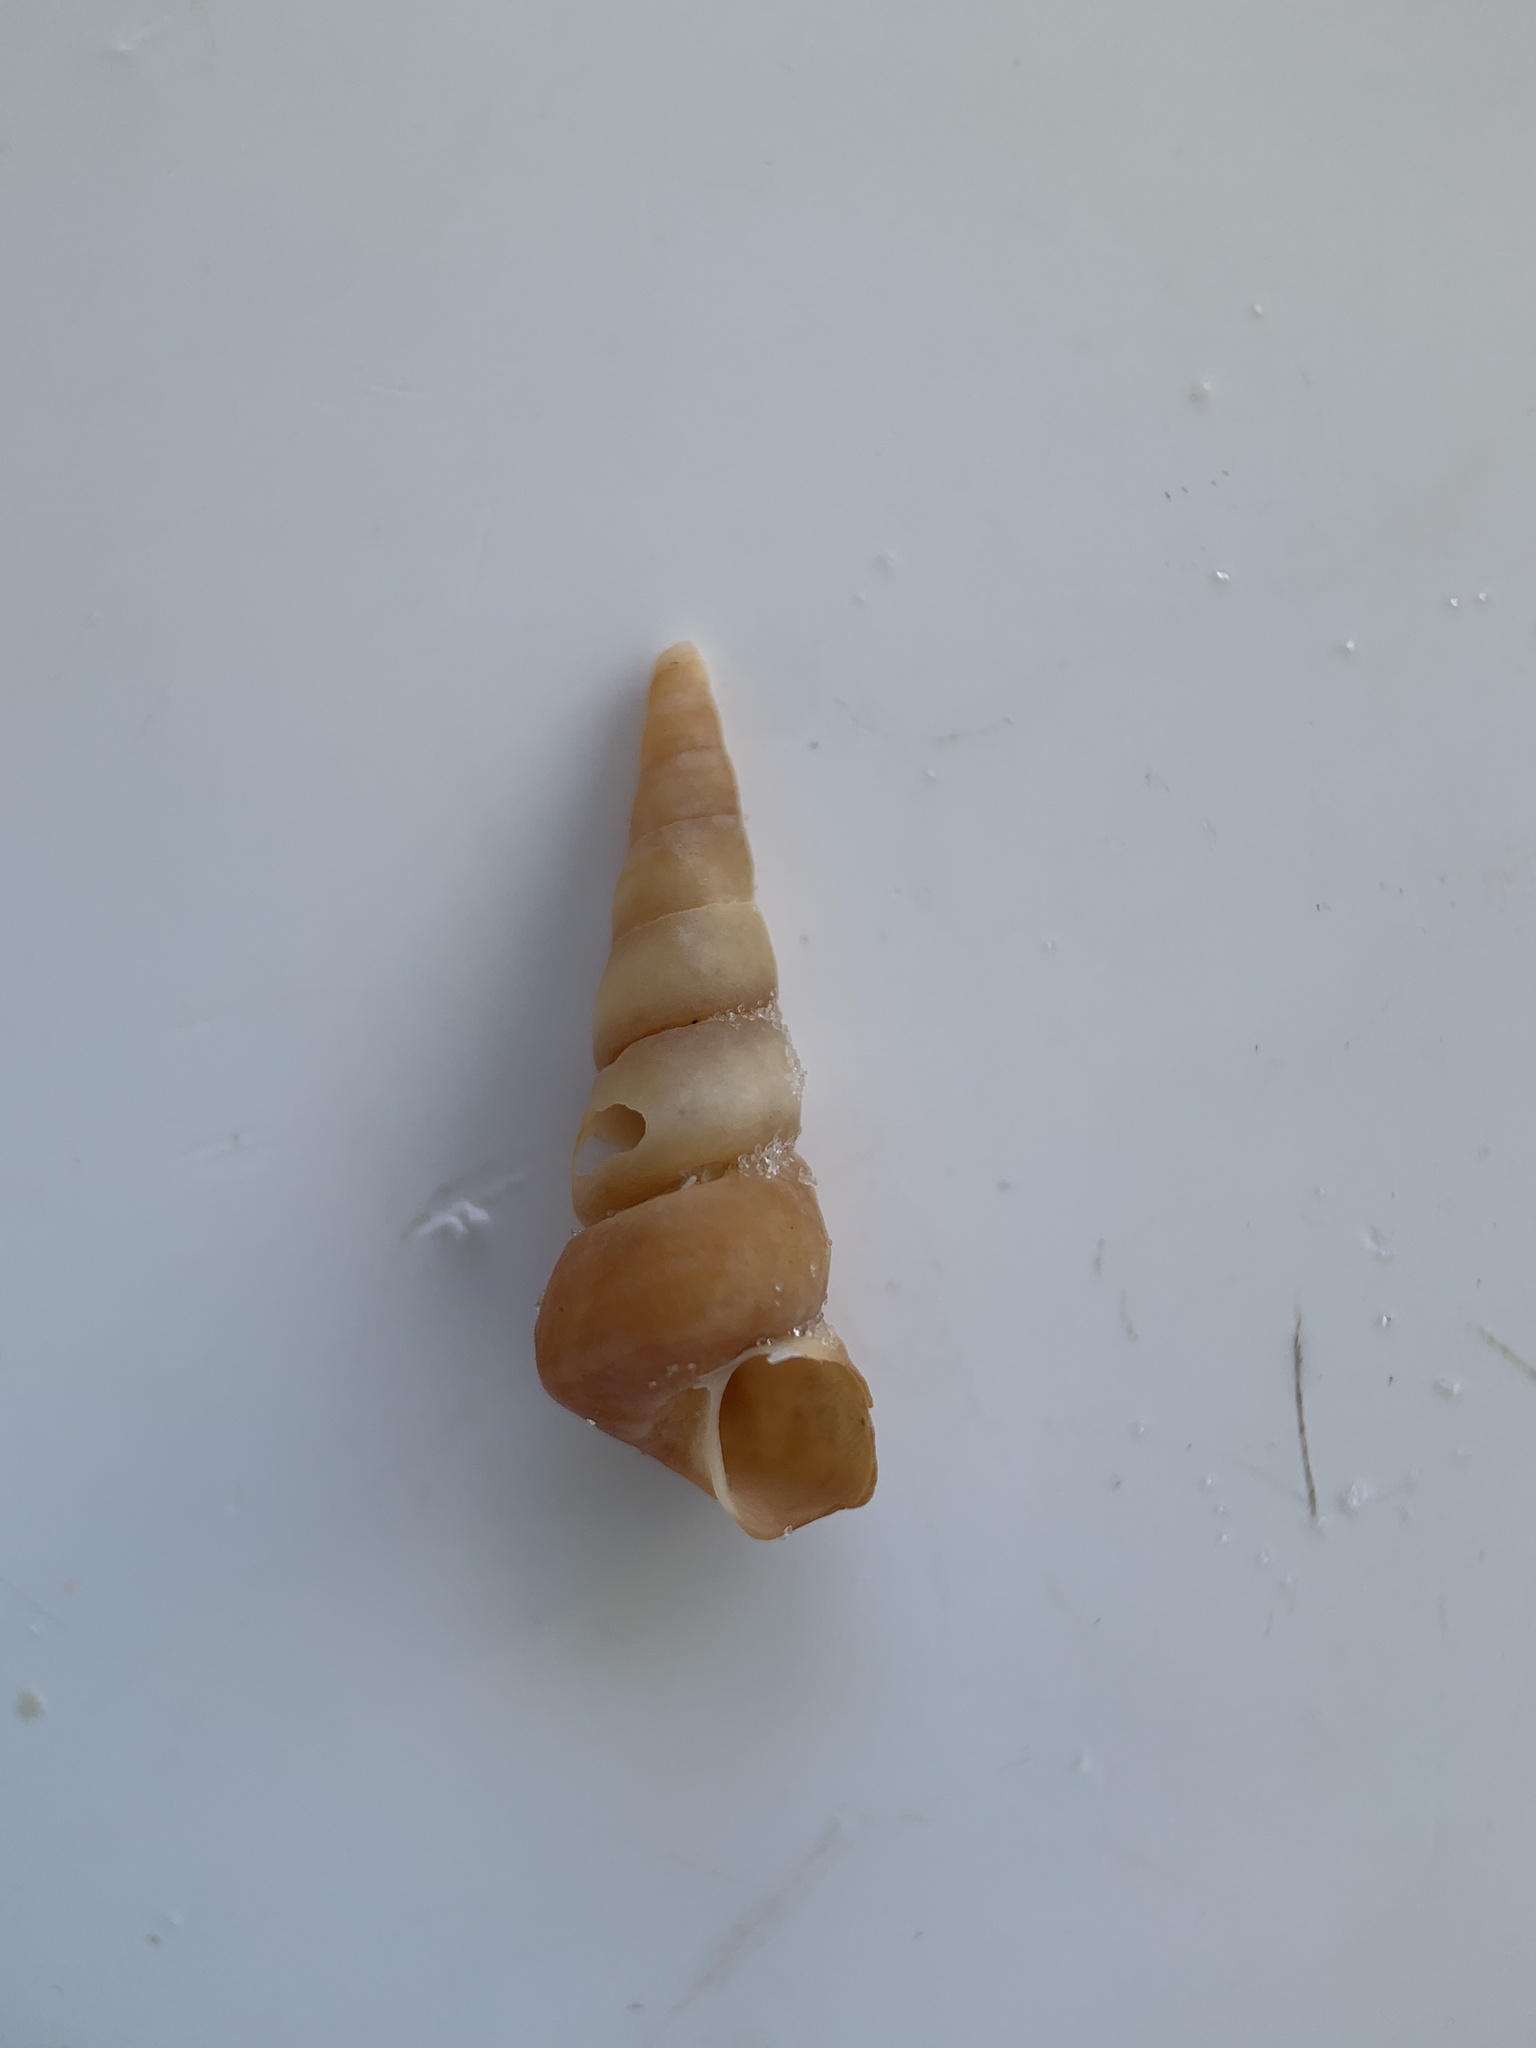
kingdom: Animalia
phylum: Mollusca
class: Gastropoda
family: Turritellidae
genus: Vermicularia
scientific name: Vermicularia lumbricalis
